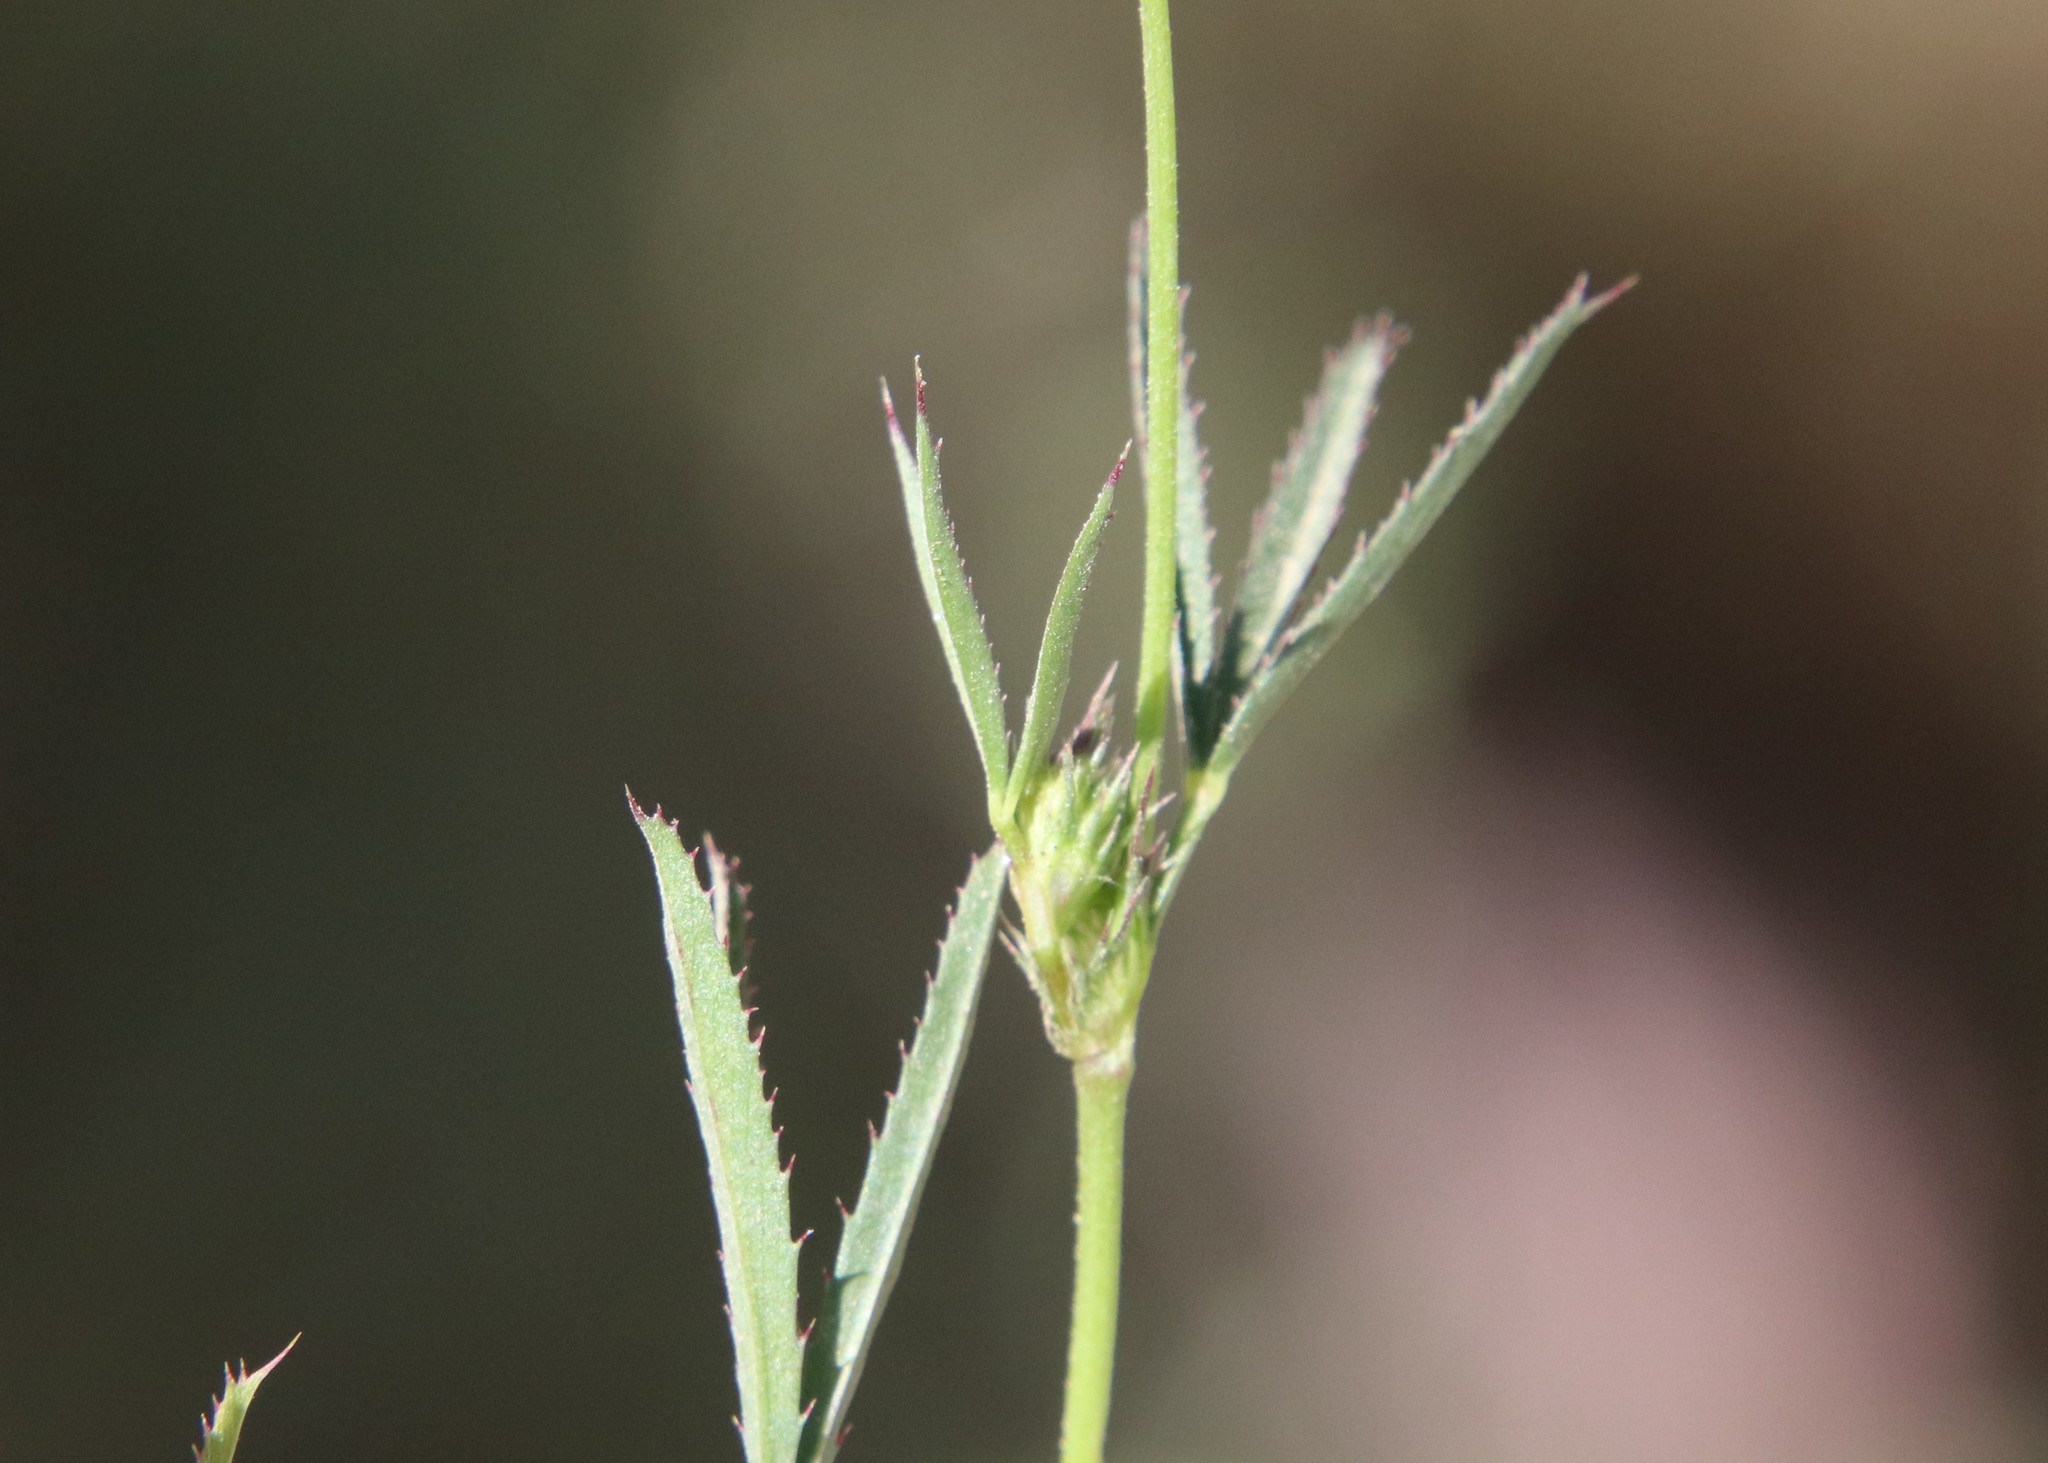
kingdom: Plantae
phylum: Tracheophyta
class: Magnoliopsida
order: Fabales
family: Fabaceae
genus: Trifolium
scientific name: Trifolium willdenovii
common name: Tomcat clover
